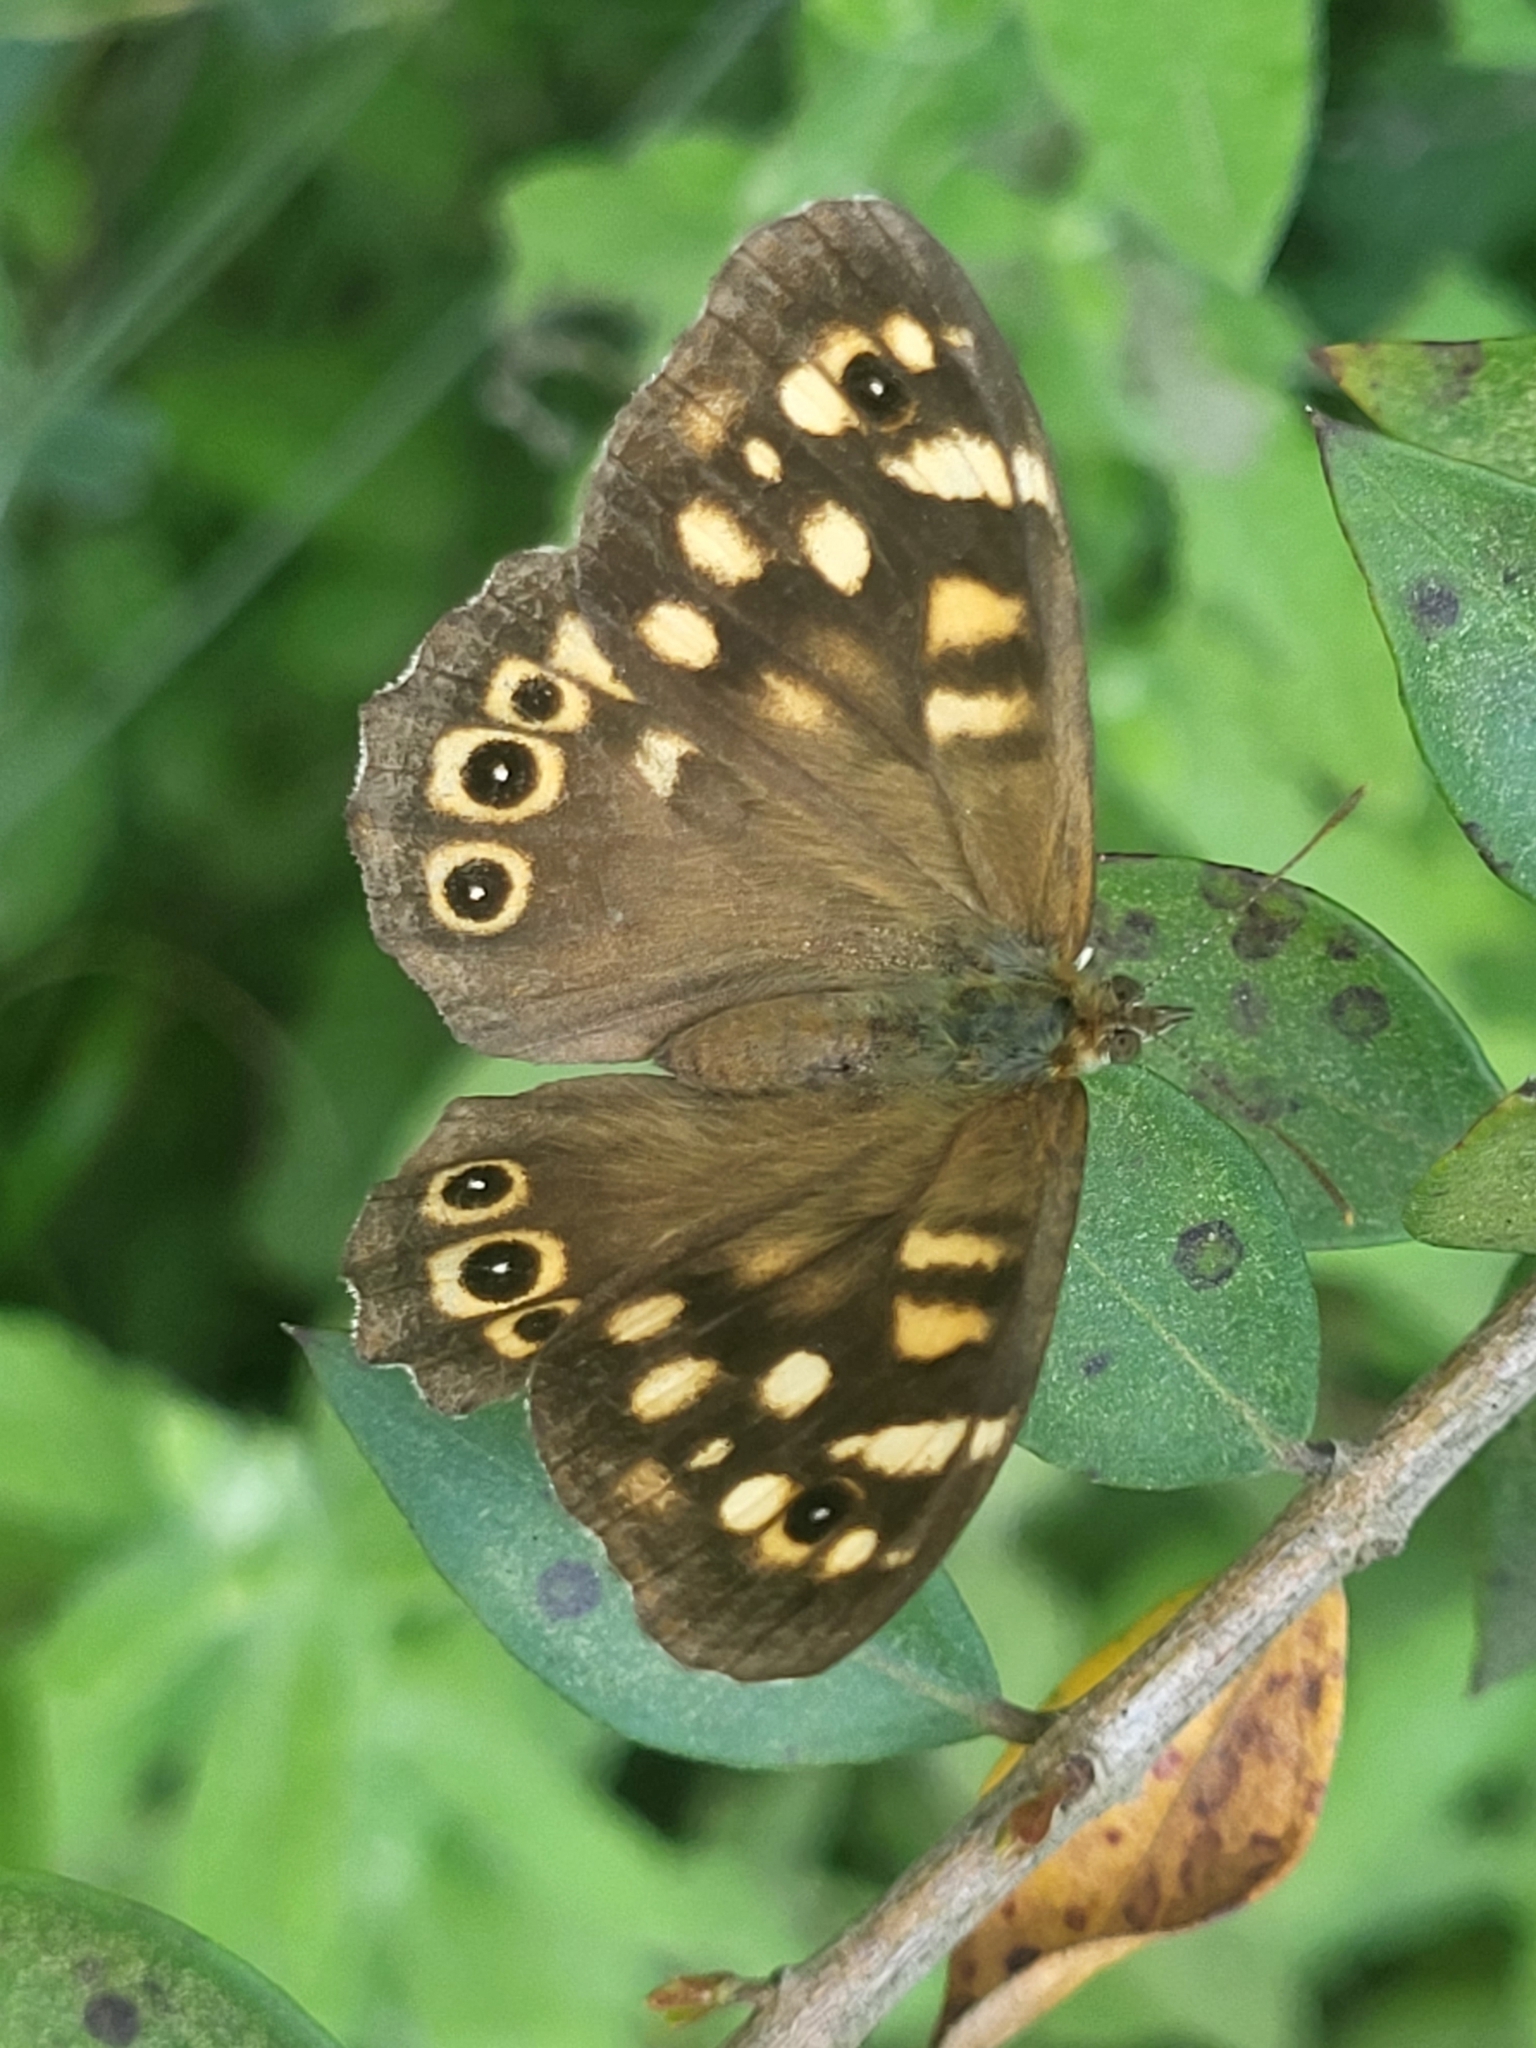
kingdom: Animalia
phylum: Arthropoda
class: Insecta
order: Lepidoptera
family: Nymphalidae
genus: Pararge
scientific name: Pararge aegeria
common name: Speckled wood
